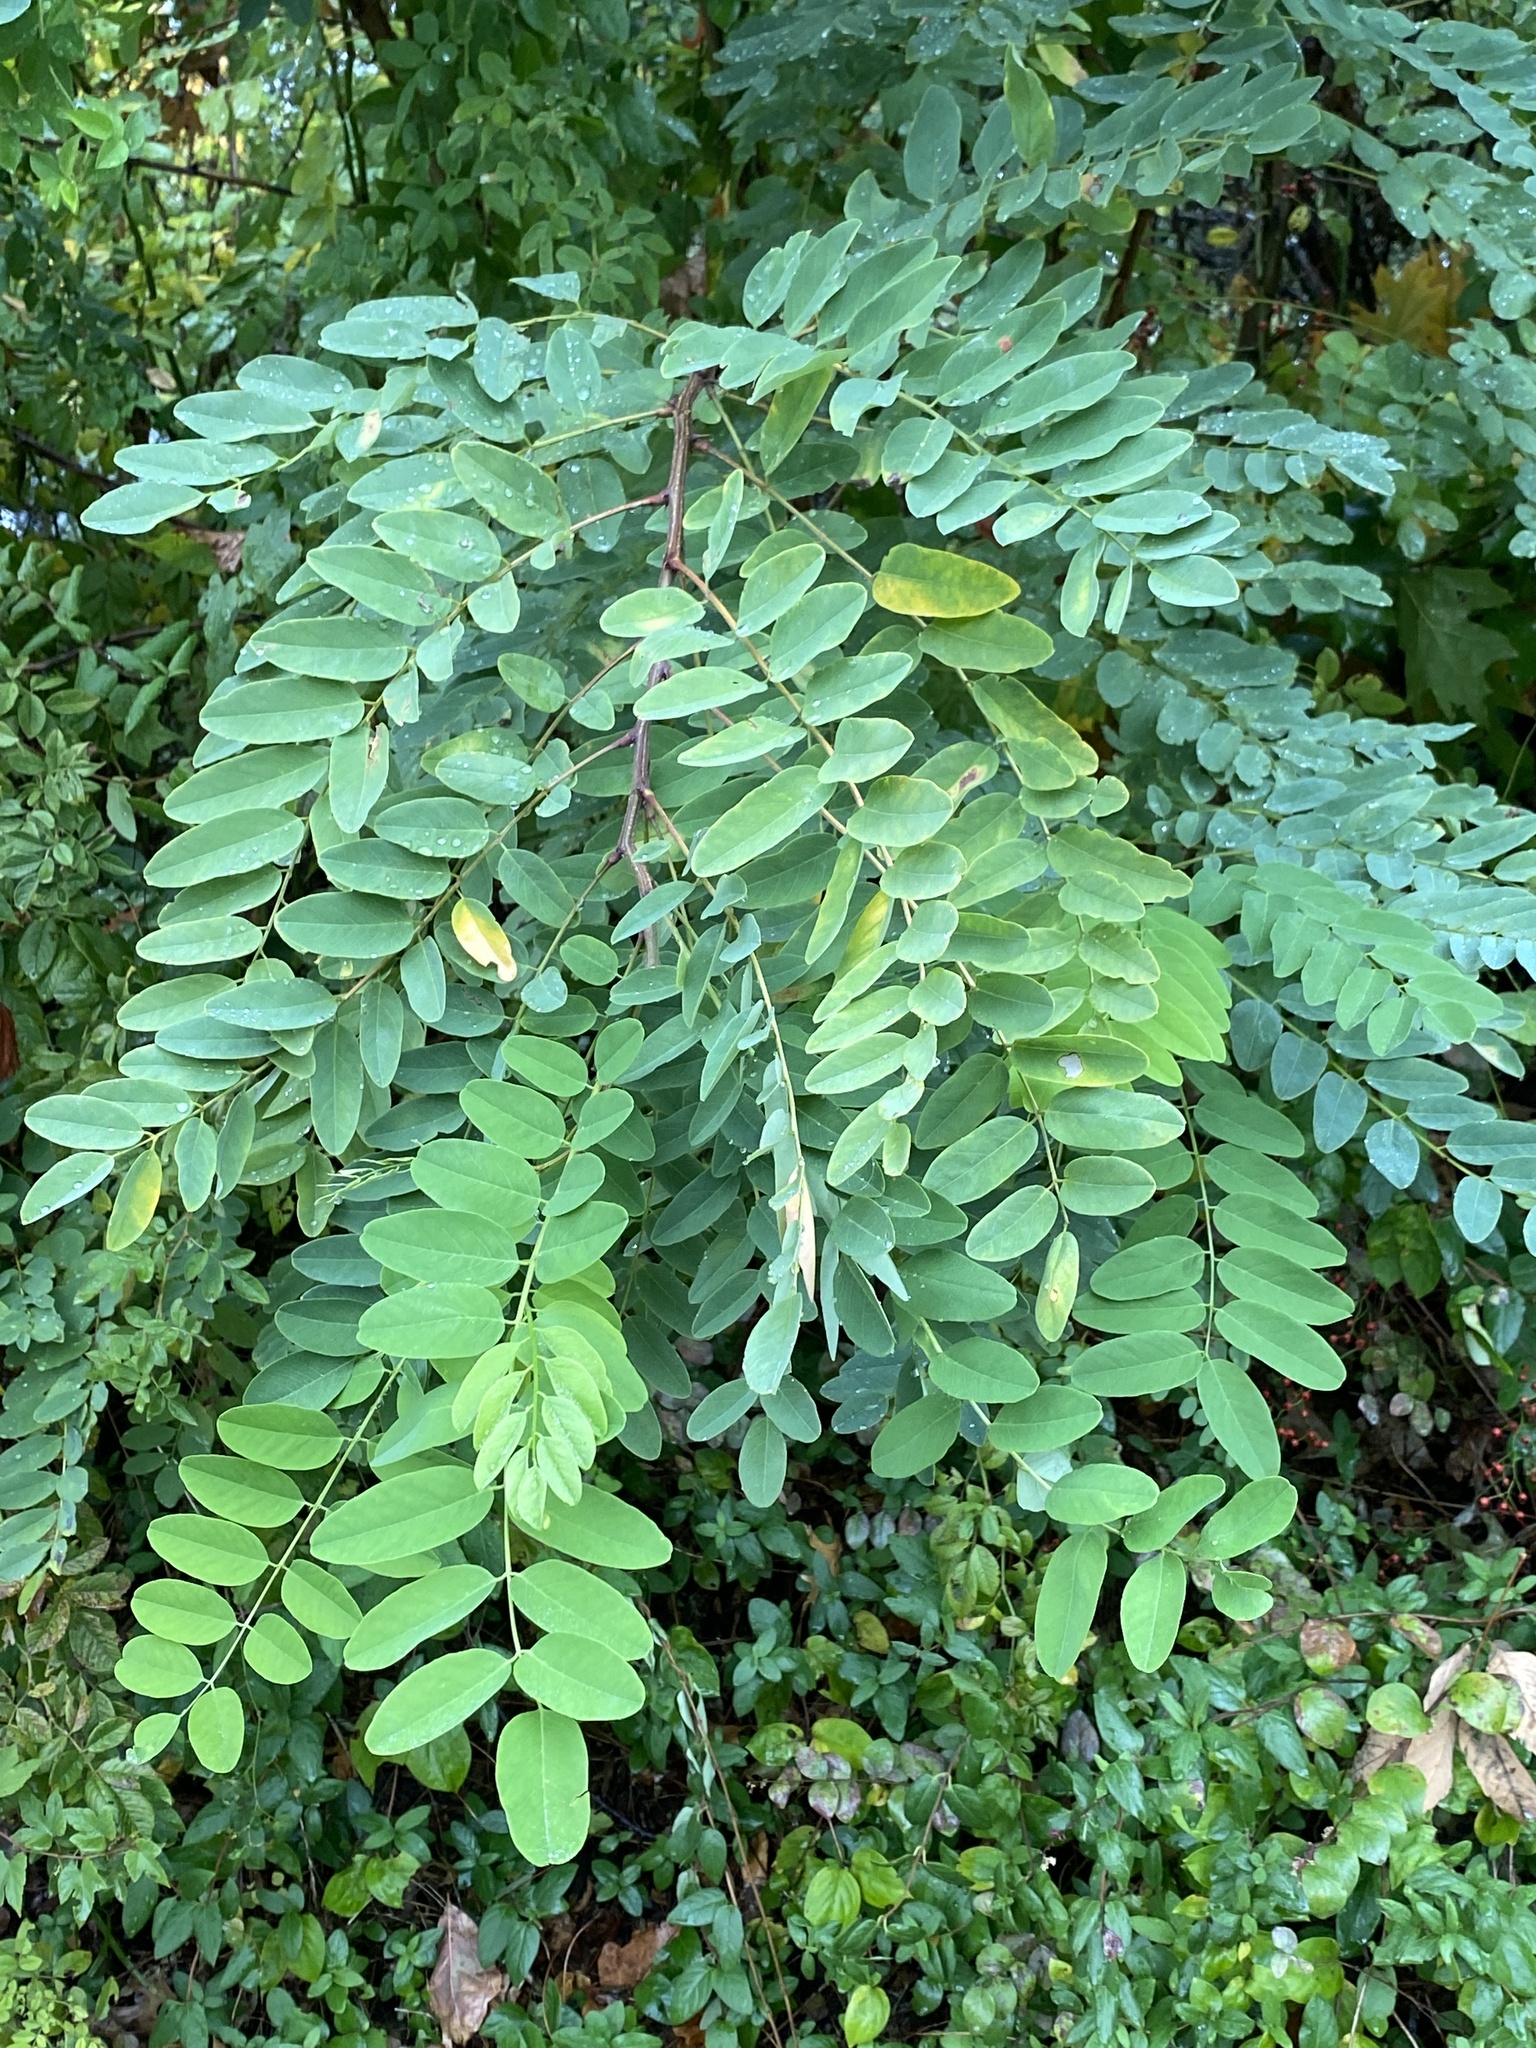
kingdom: Plantae
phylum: Tracheophyta
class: Magnoliopsida
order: Fabales
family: Fabaceae
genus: Robinia
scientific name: Robinia pseudoacacia
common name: Black locust
